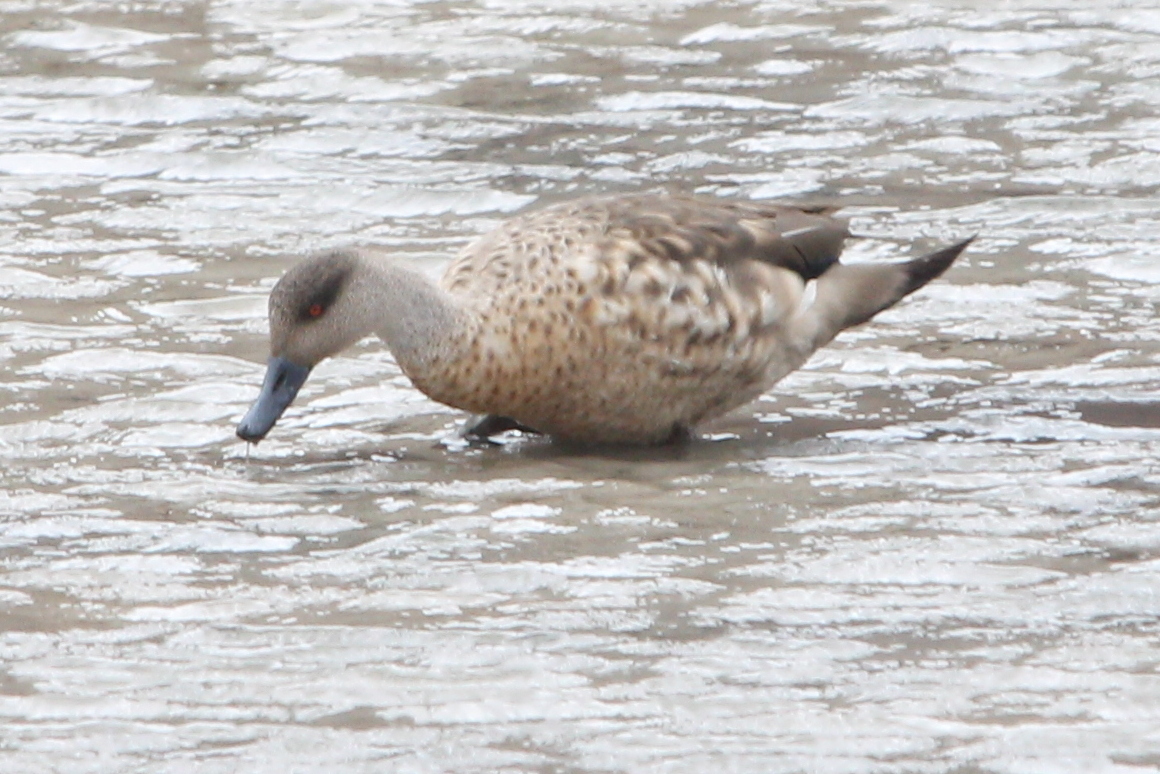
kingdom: Animalia
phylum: Chordata
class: Aves
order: Anseriformes
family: Anatidae
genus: Lophonetta
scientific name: Lophonetta specularioides
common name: Crested duck
